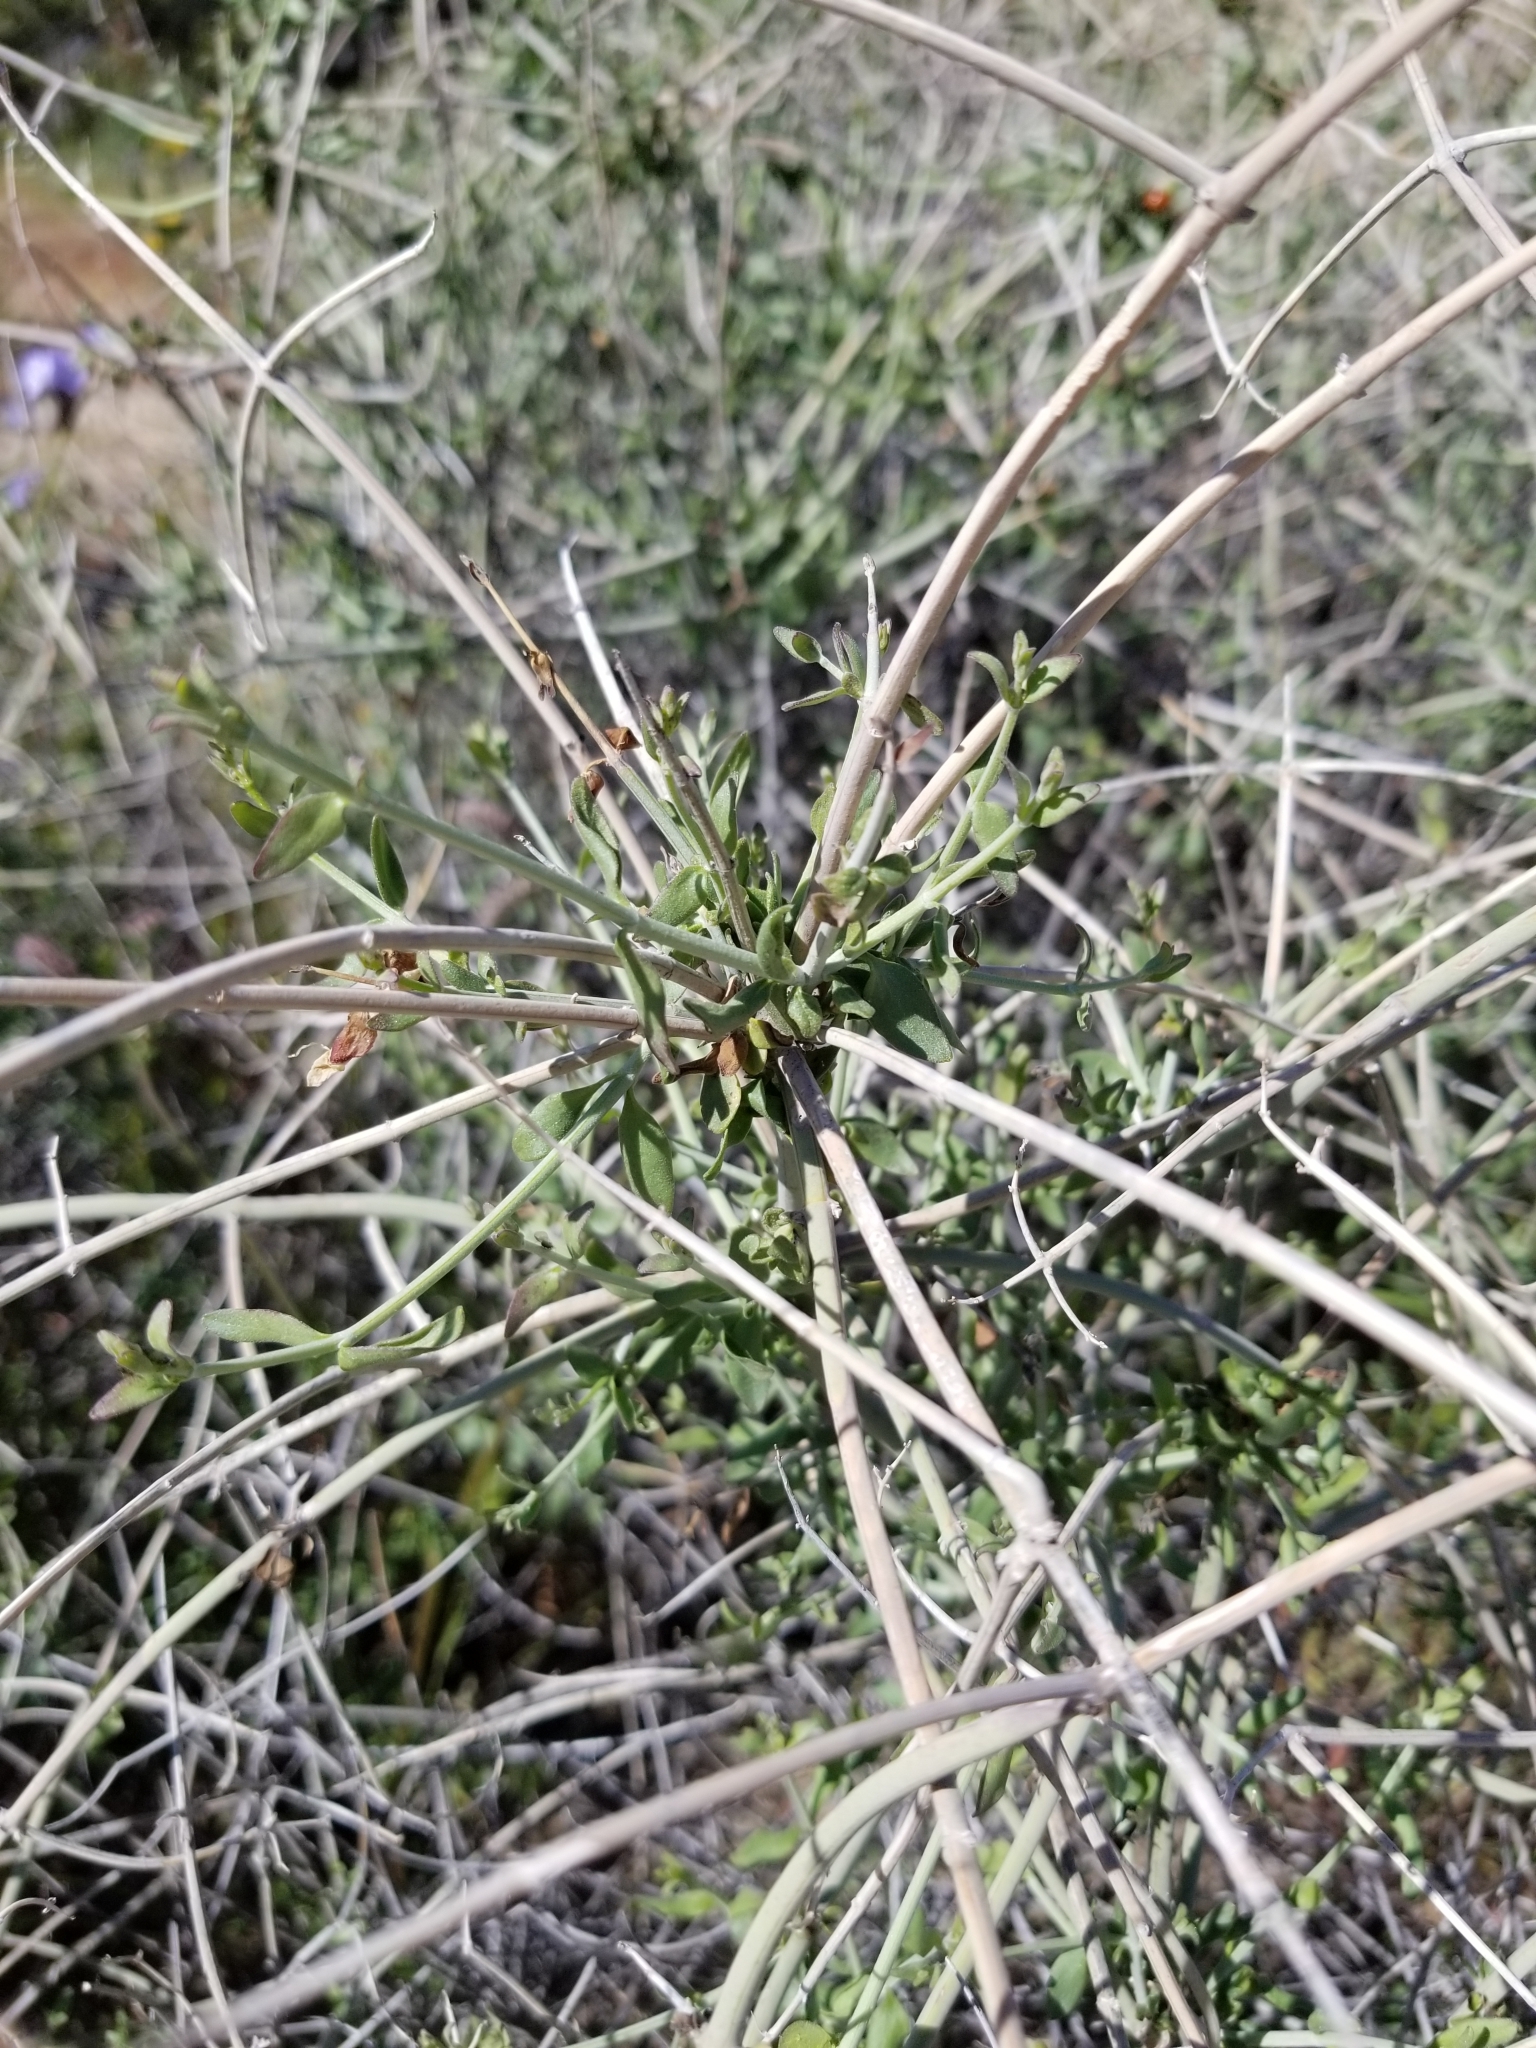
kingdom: Plantae
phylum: Tracheophyta
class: Magnoliopsida
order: Lamiales
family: Lamiaceae
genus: Scutellaria
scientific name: Scutellaria mexicana
